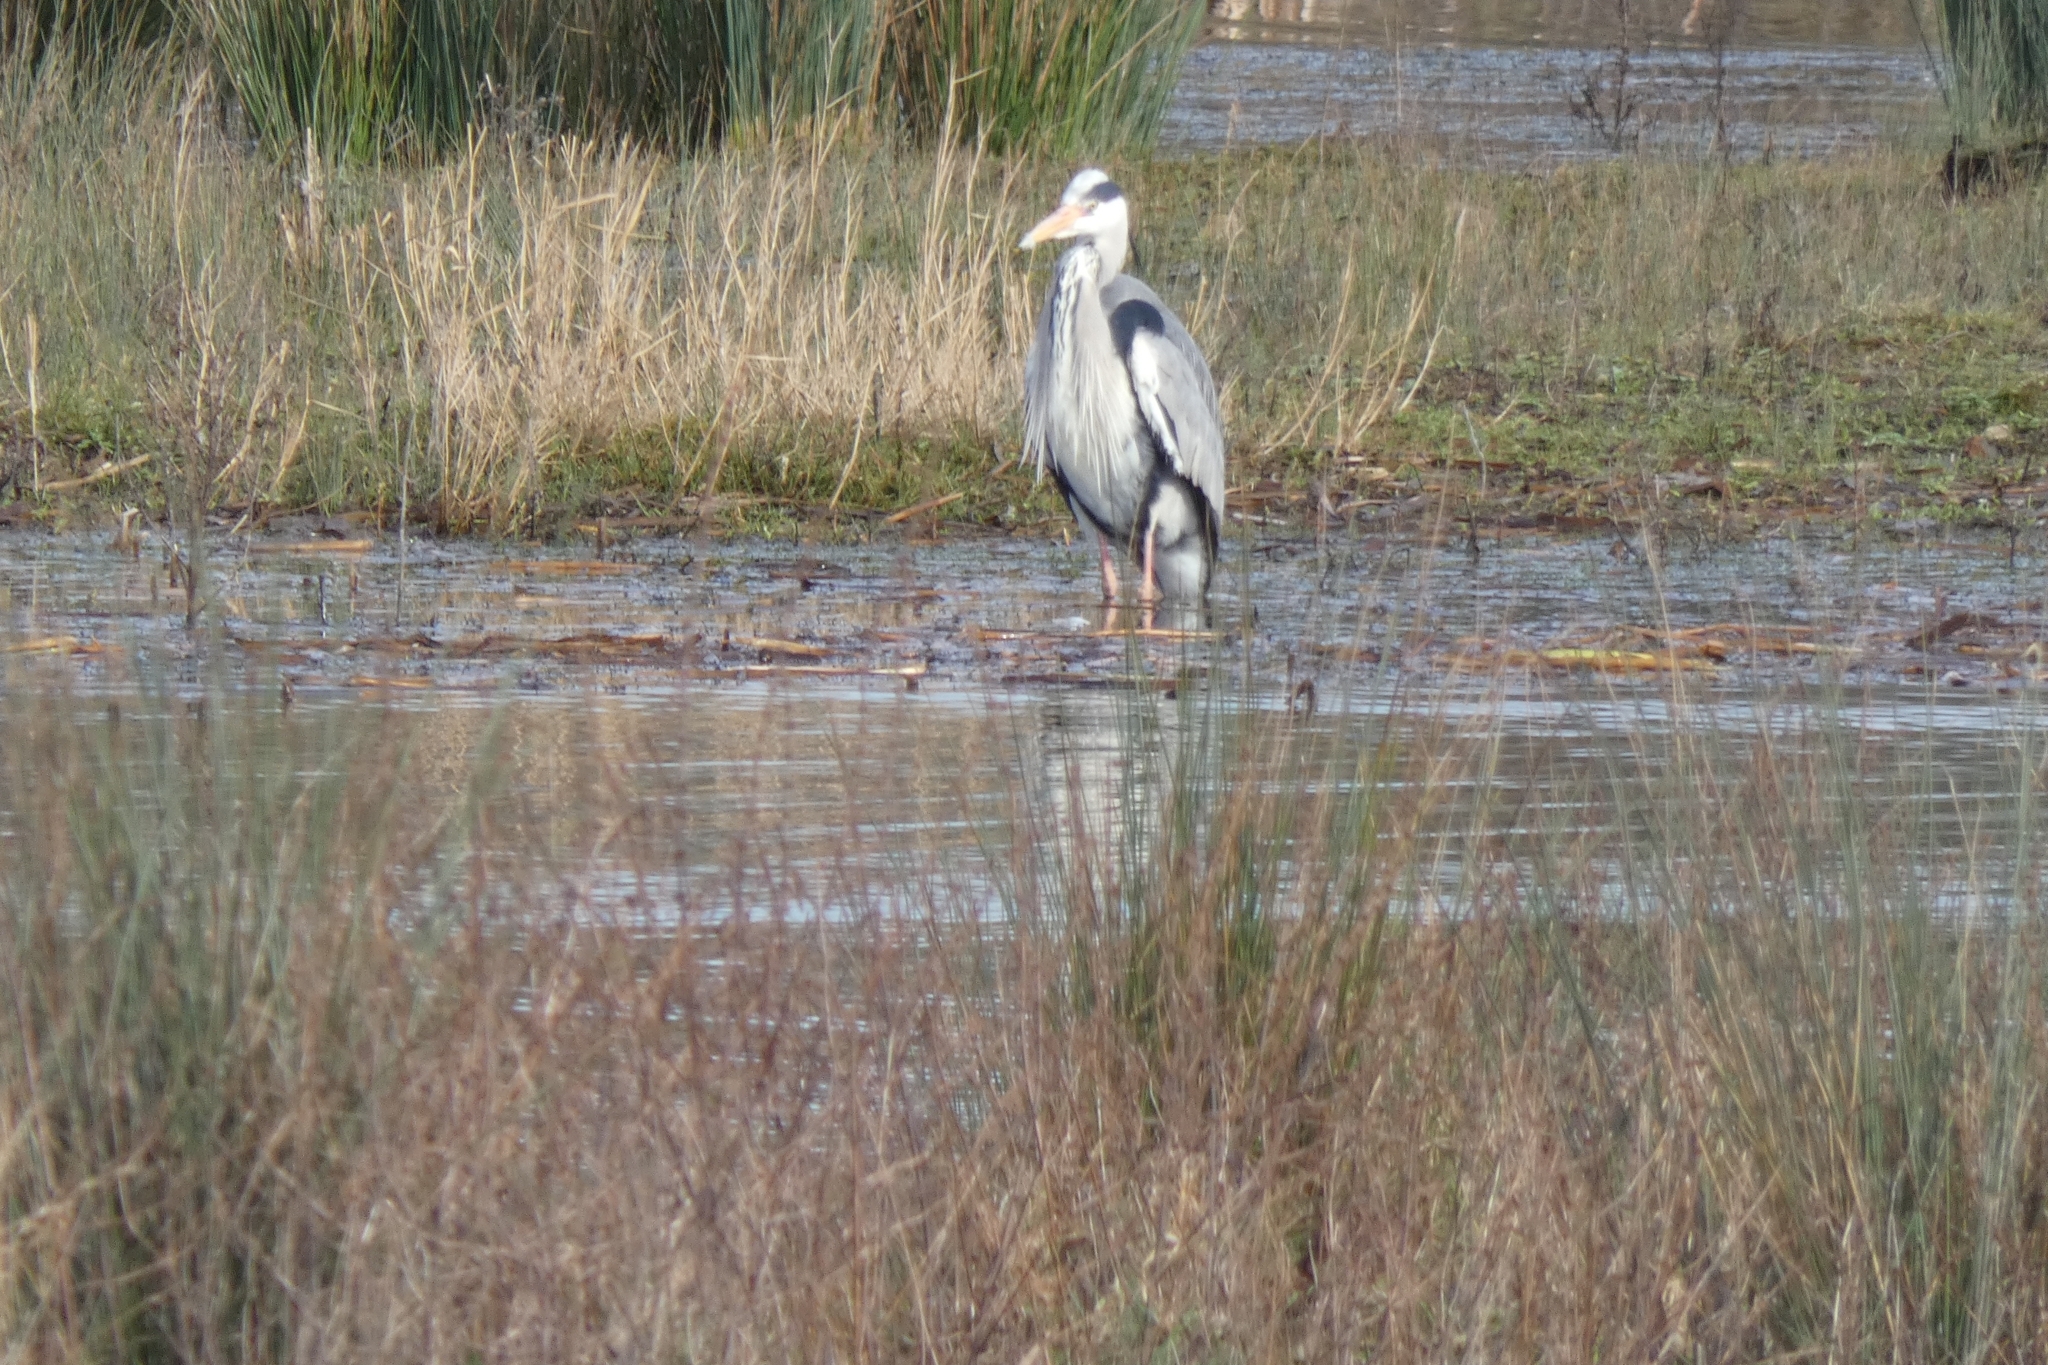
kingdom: Animalia
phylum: Chordata
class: Aves
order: Pelecaniformes
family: Ardeidae
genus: Ardea
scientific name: Ardea cinerea
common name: Grey heron
